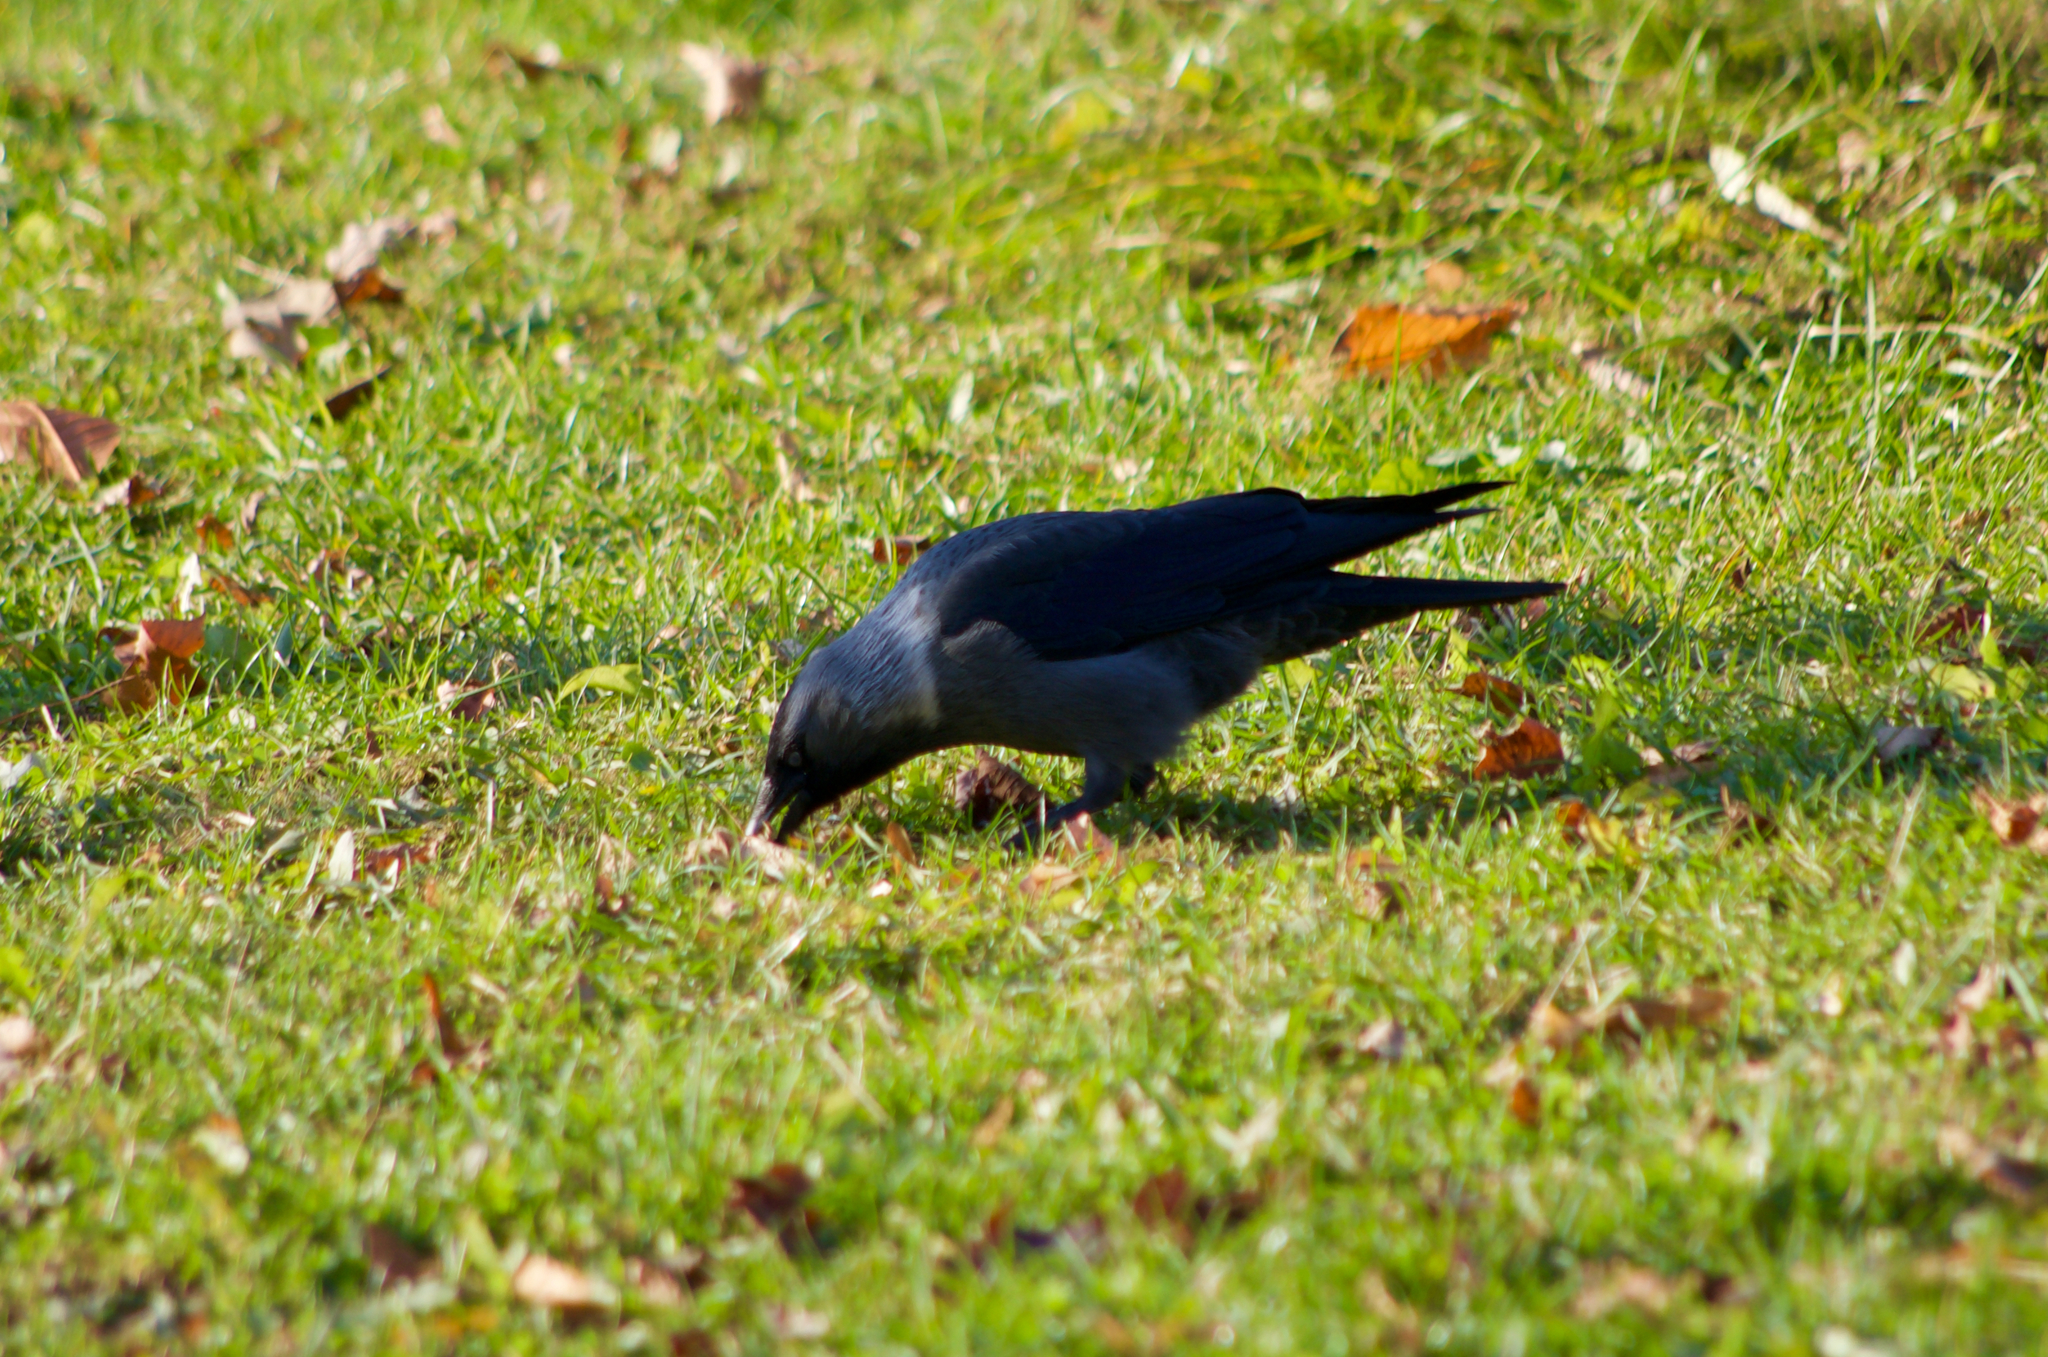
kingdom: Animalia
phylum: Chordata
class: Aves
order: Passeriformes
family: Corvidae
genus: Coloeus
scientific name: Coloeus monedula
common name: Western jackdaw
